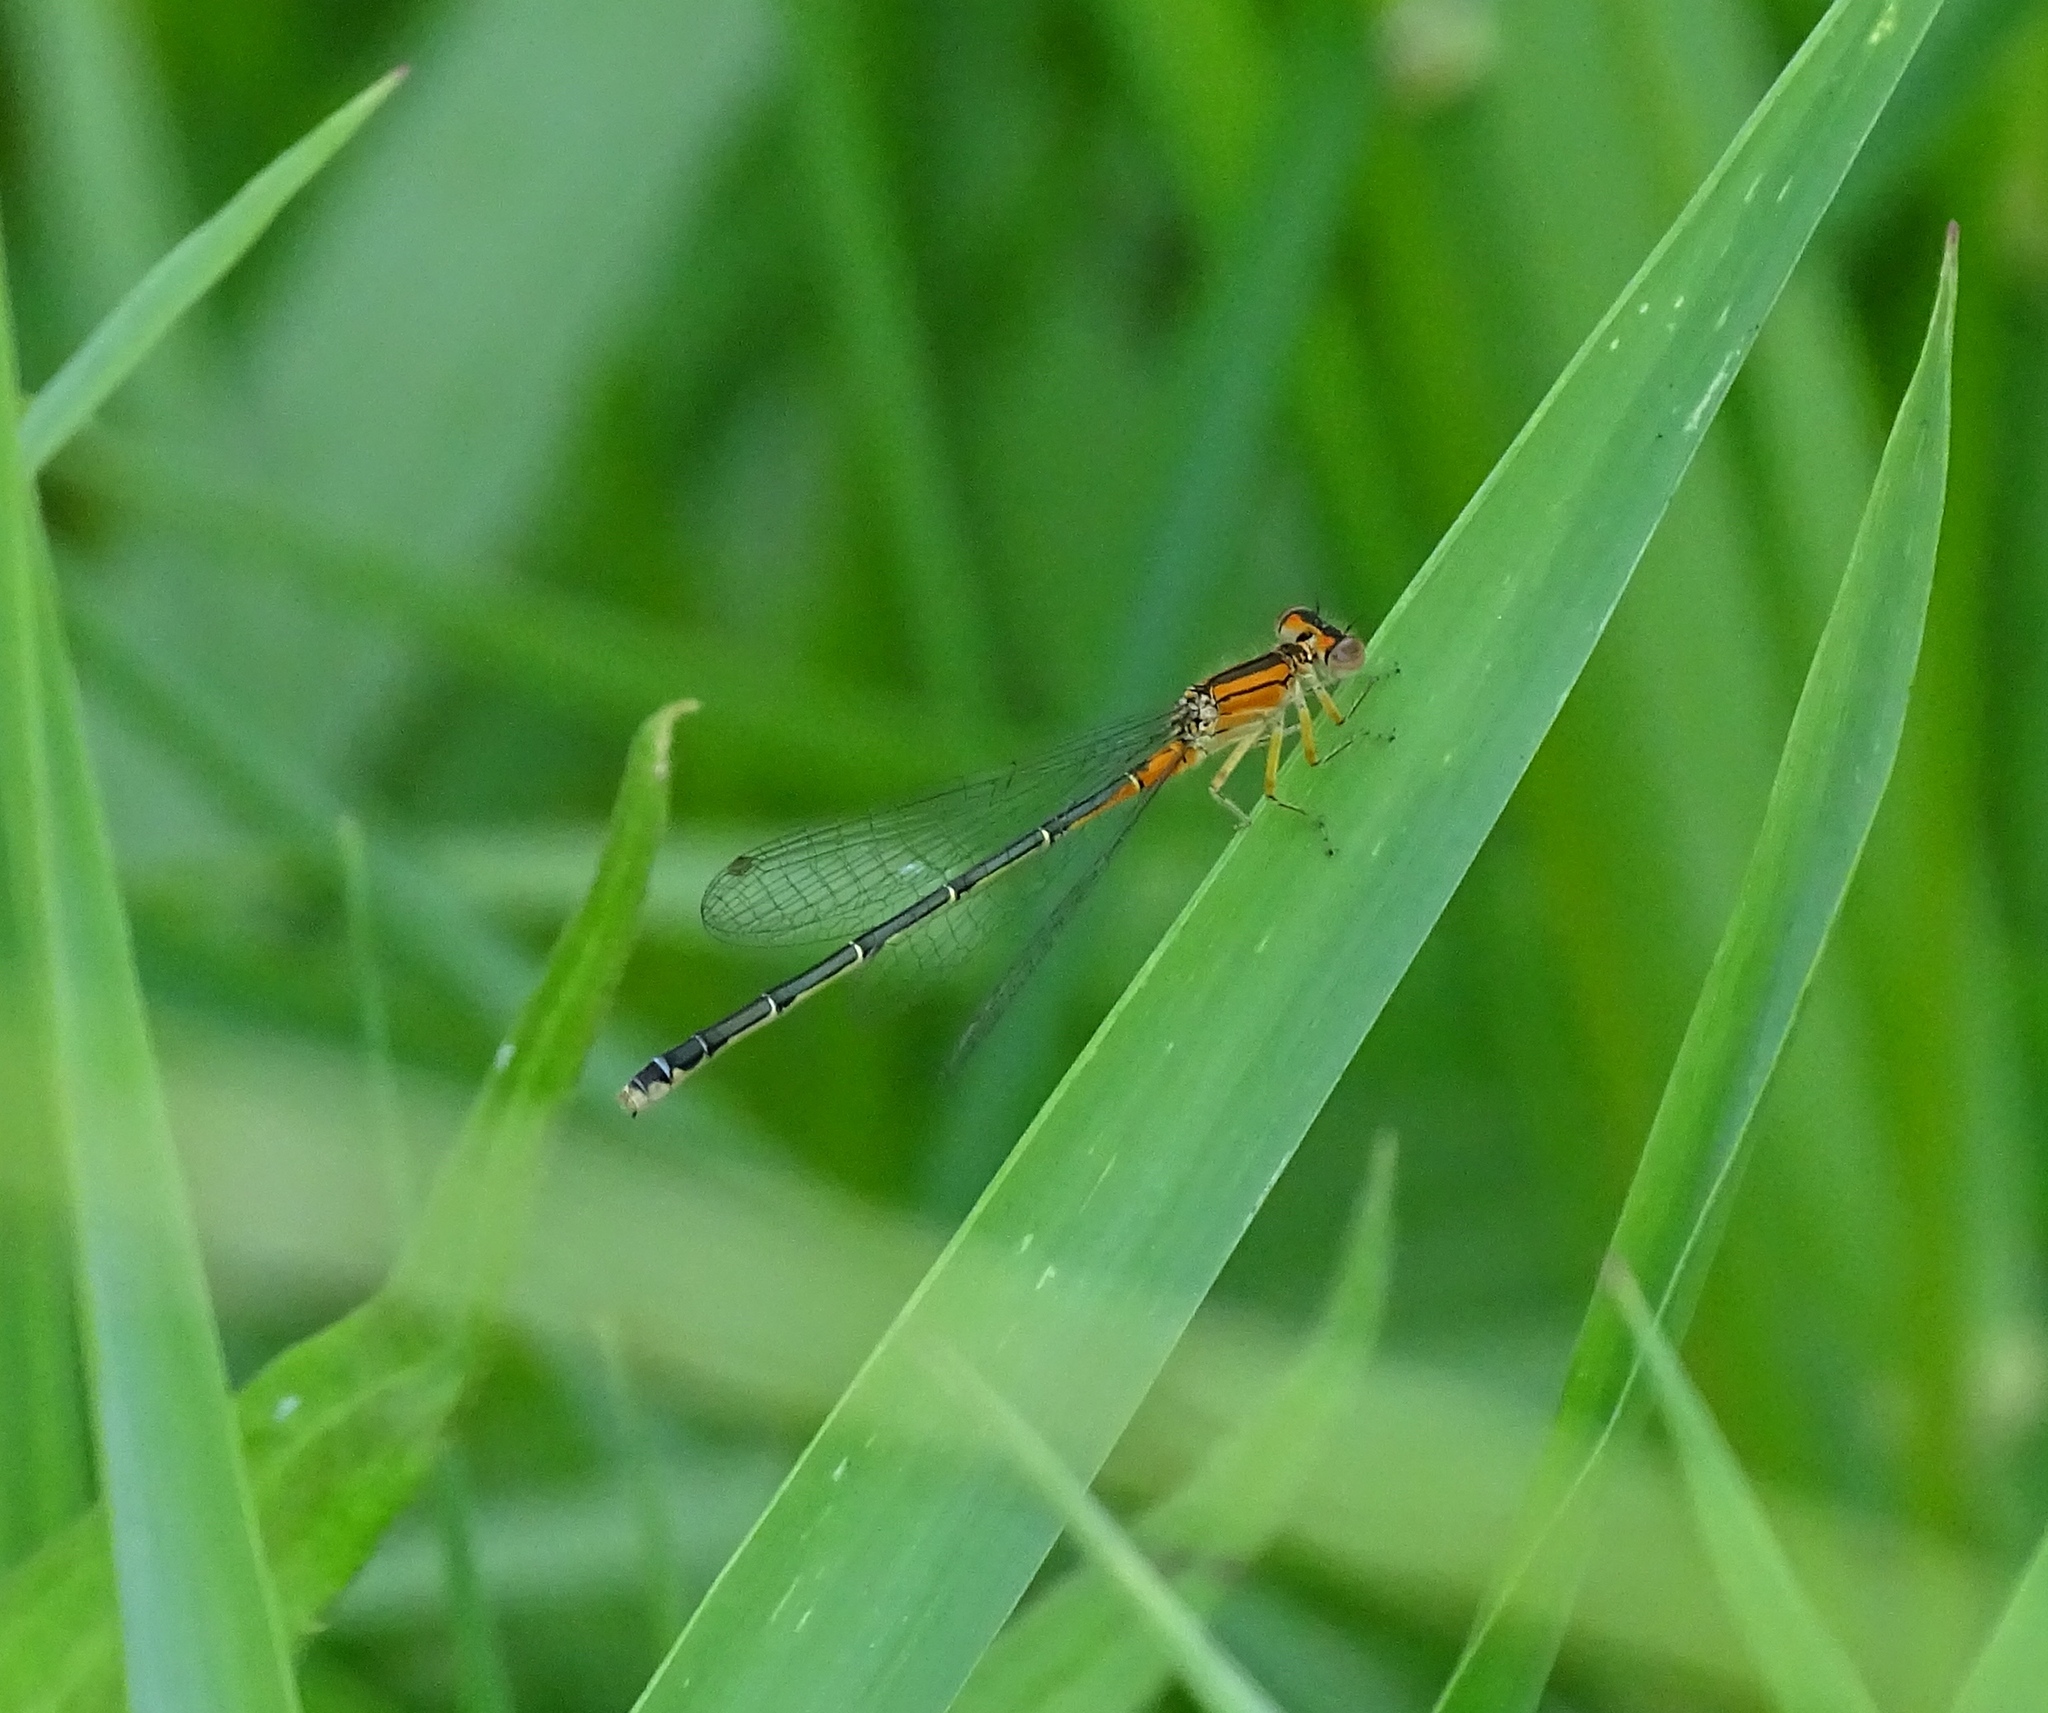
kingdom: Animalia
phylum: Arthropoda
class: Insecta
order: Odonata
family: Coenagrionidae
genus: Ischnura
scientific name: Ischnura verticalis
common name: Eastern forktail
